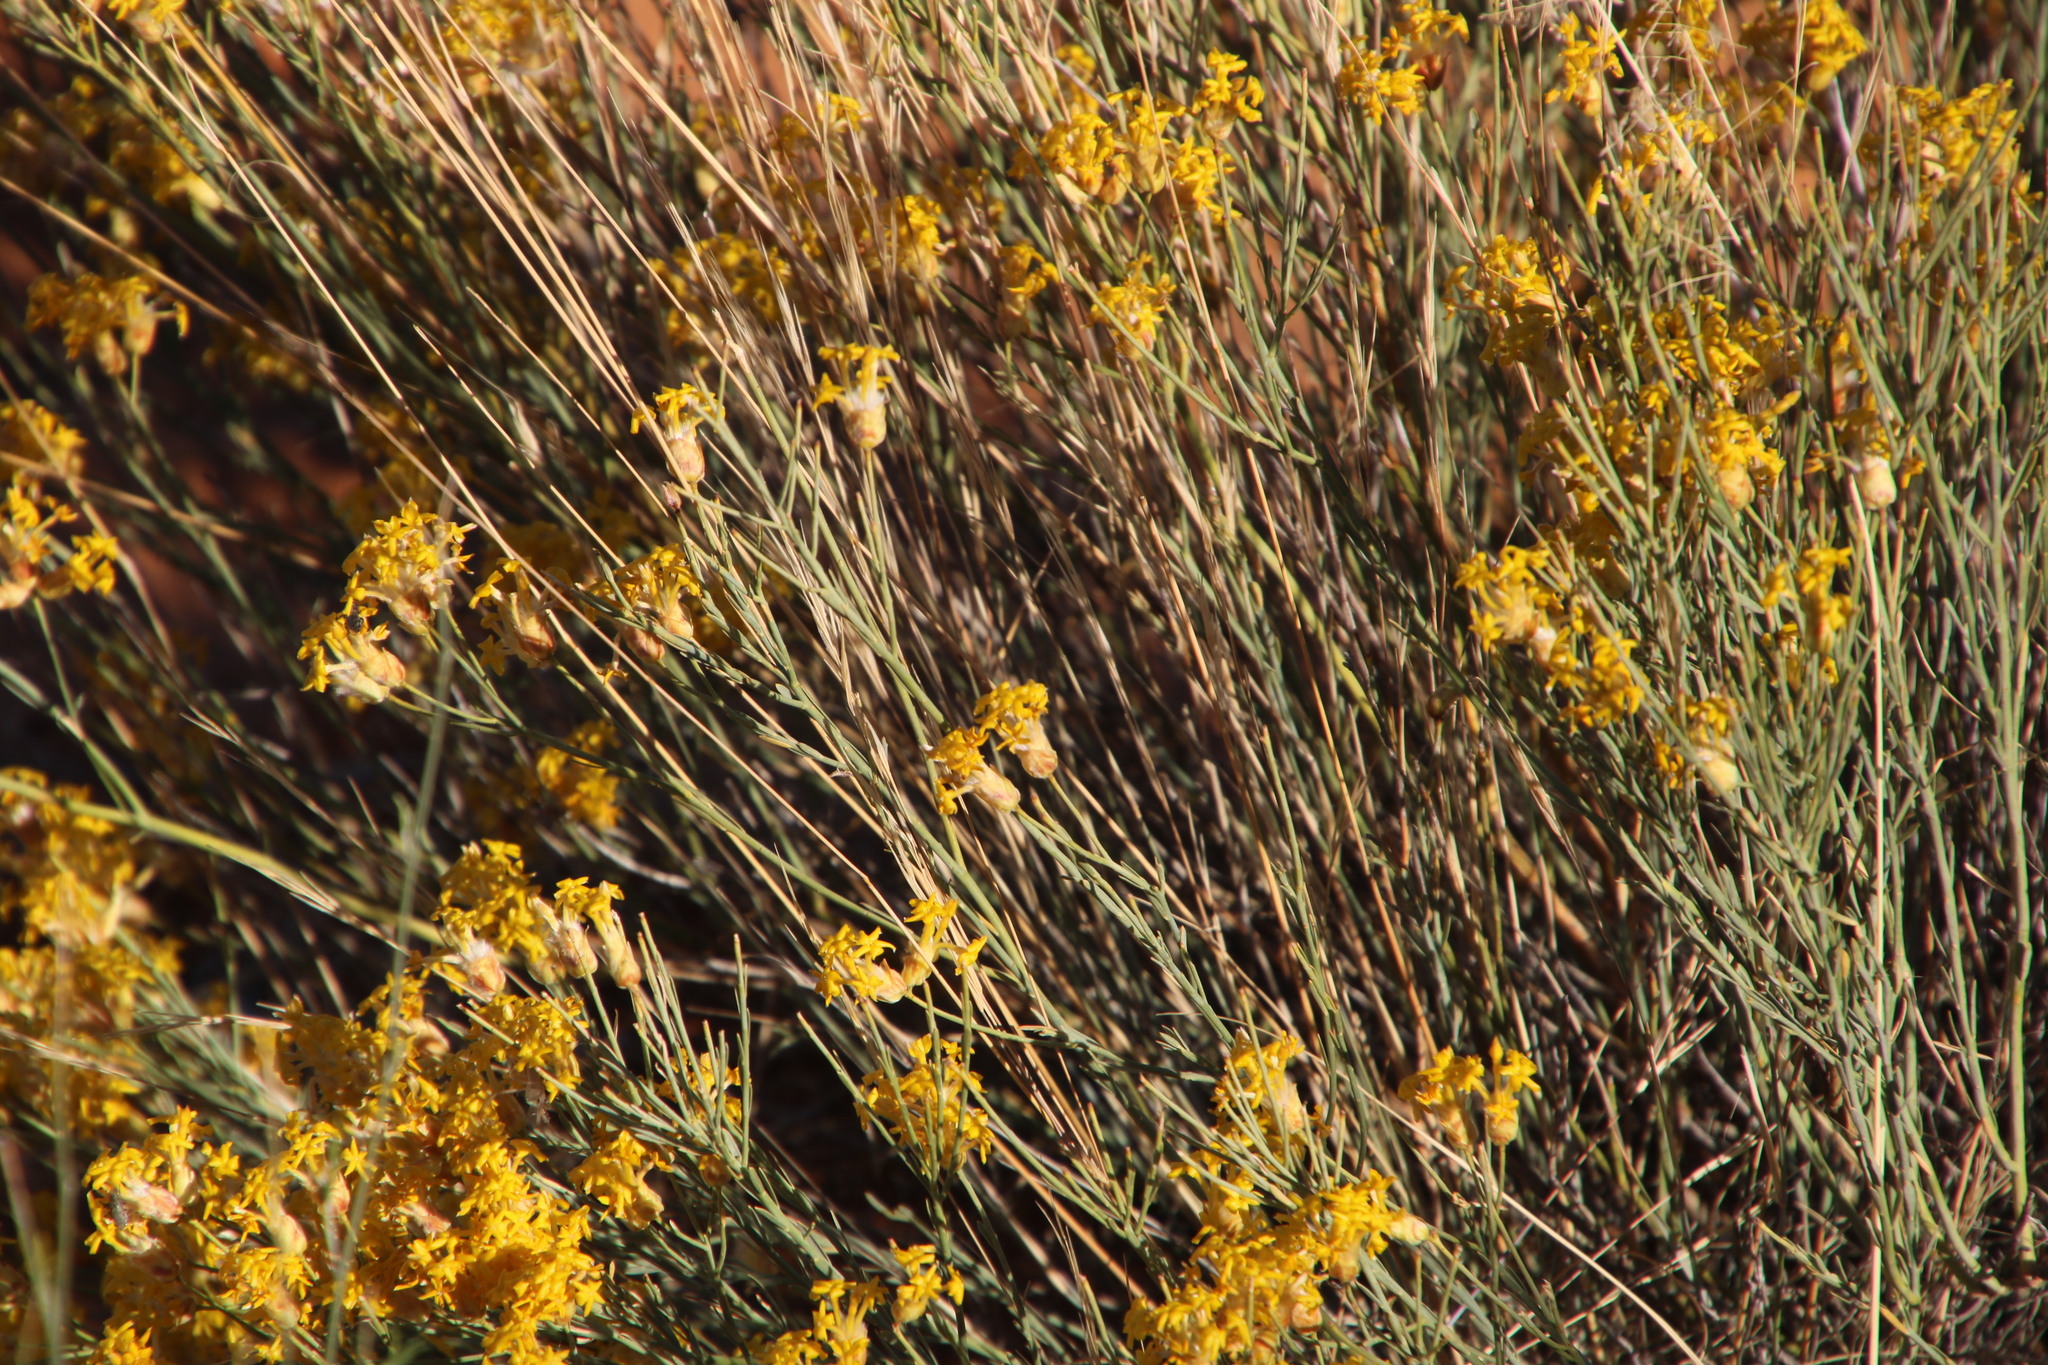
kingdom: Plantae
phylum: Tracheophyta
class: Magnoliopsida
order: Malvales
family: Thymelaeaceae
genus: Gnidia
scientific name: Gnidia polycephala
